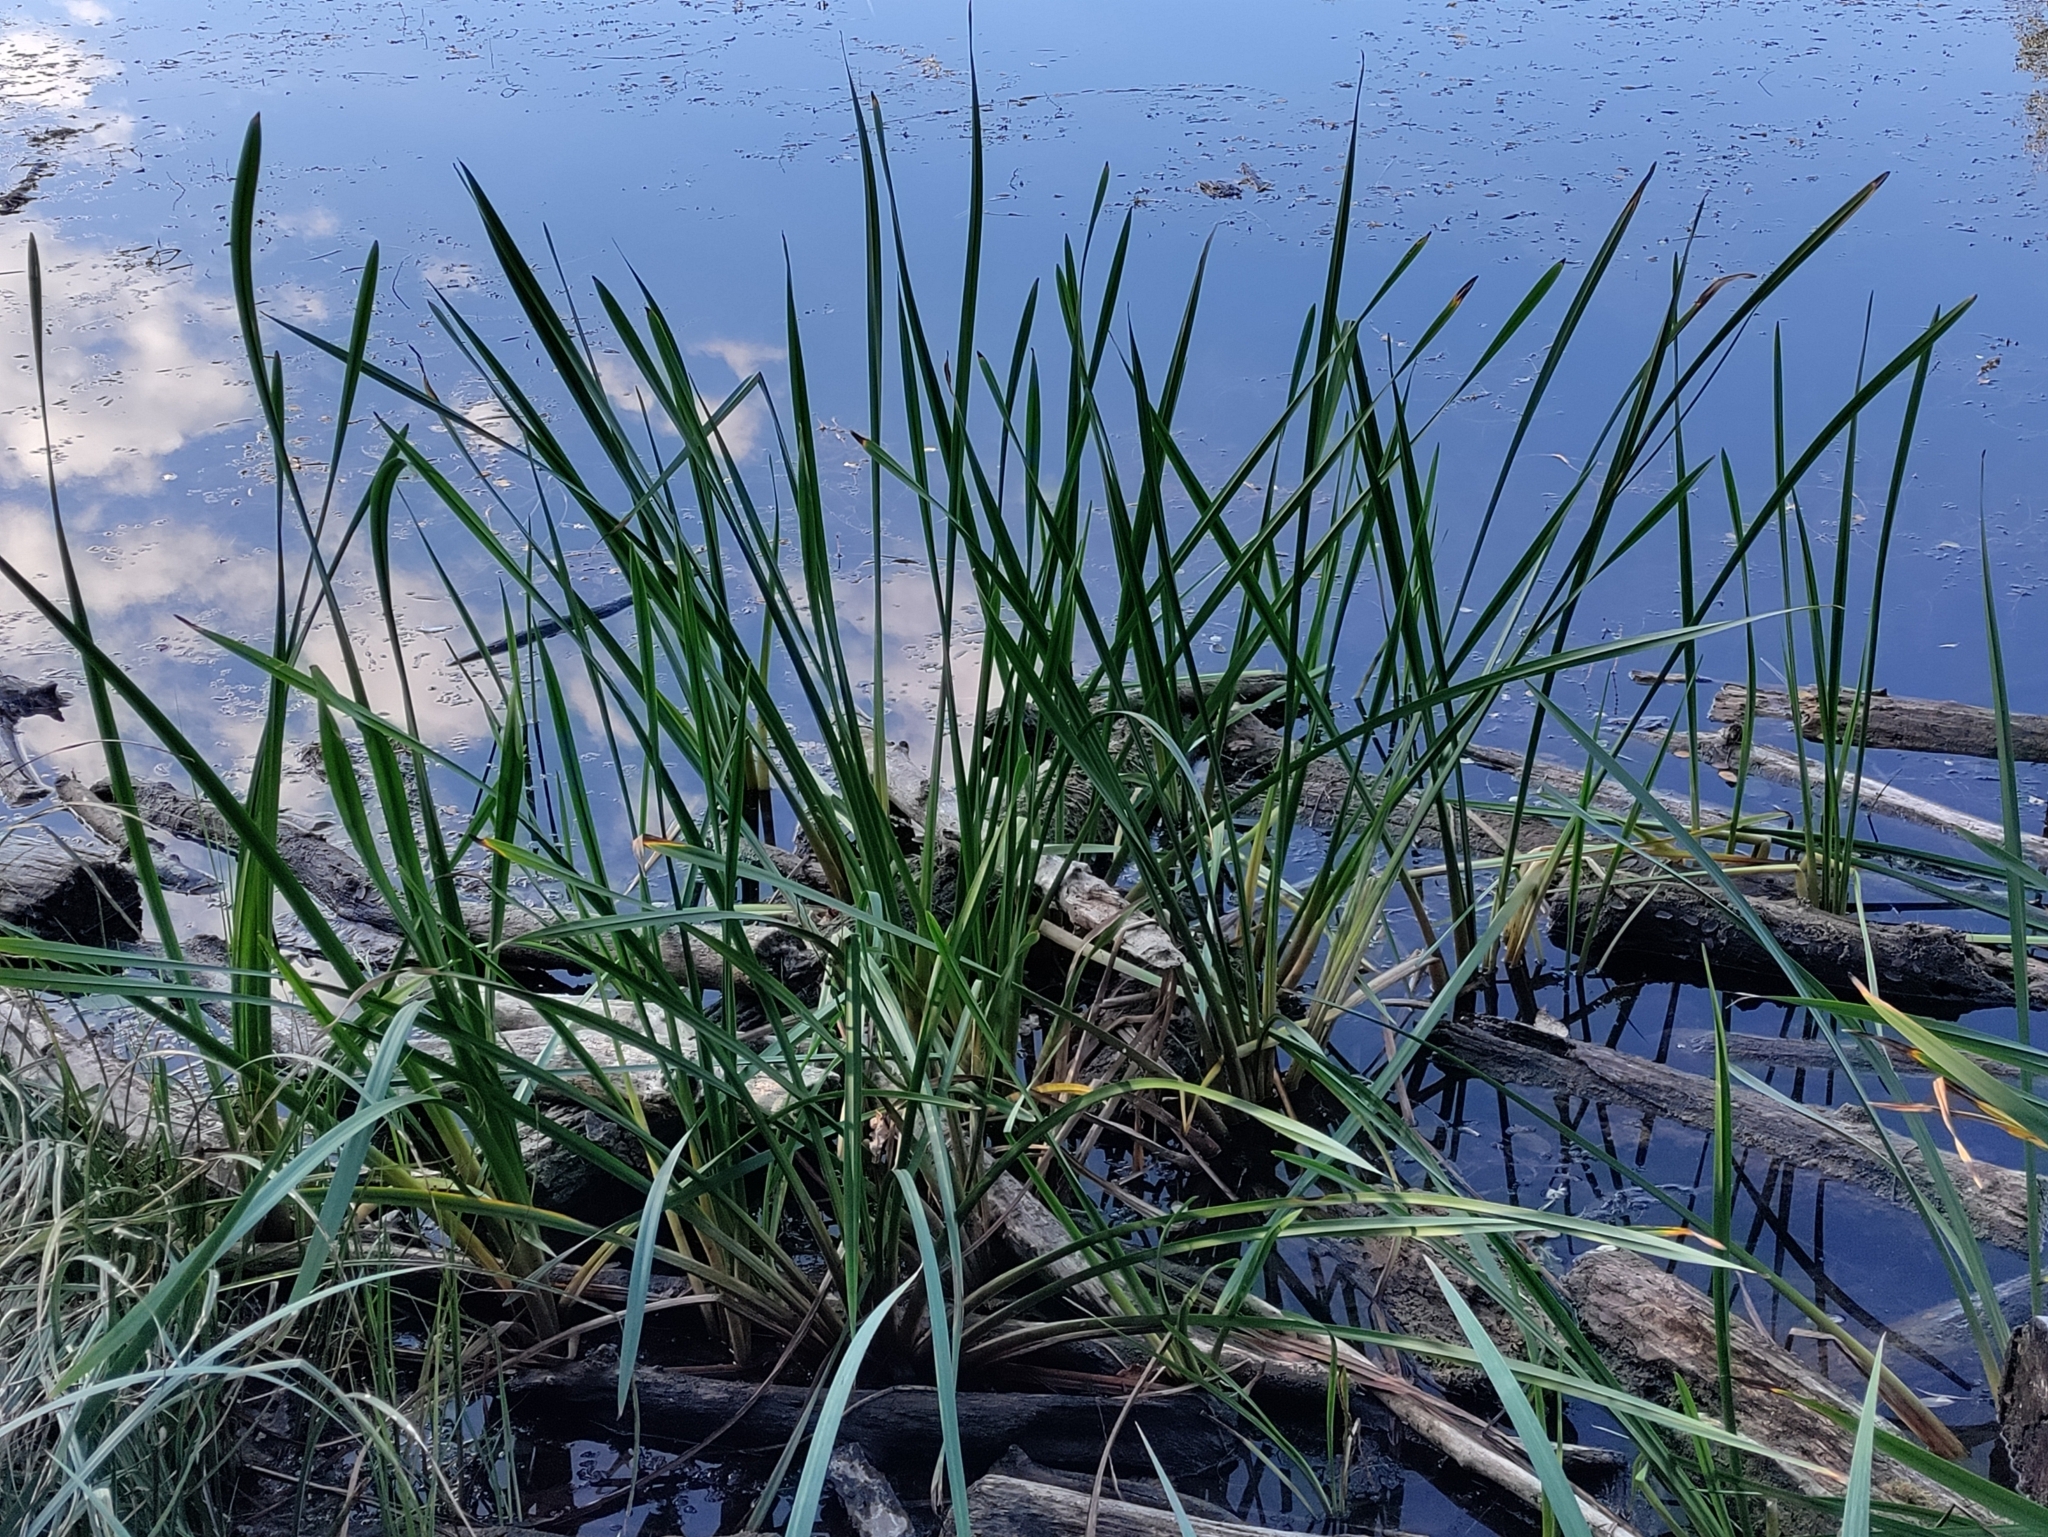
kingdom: Plantae
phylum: Tracheophyta
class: Liliopsida
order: Poales
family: Typhaceae
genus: Sparganium
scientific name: Sparganium erectum
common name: Branched bur-reed
